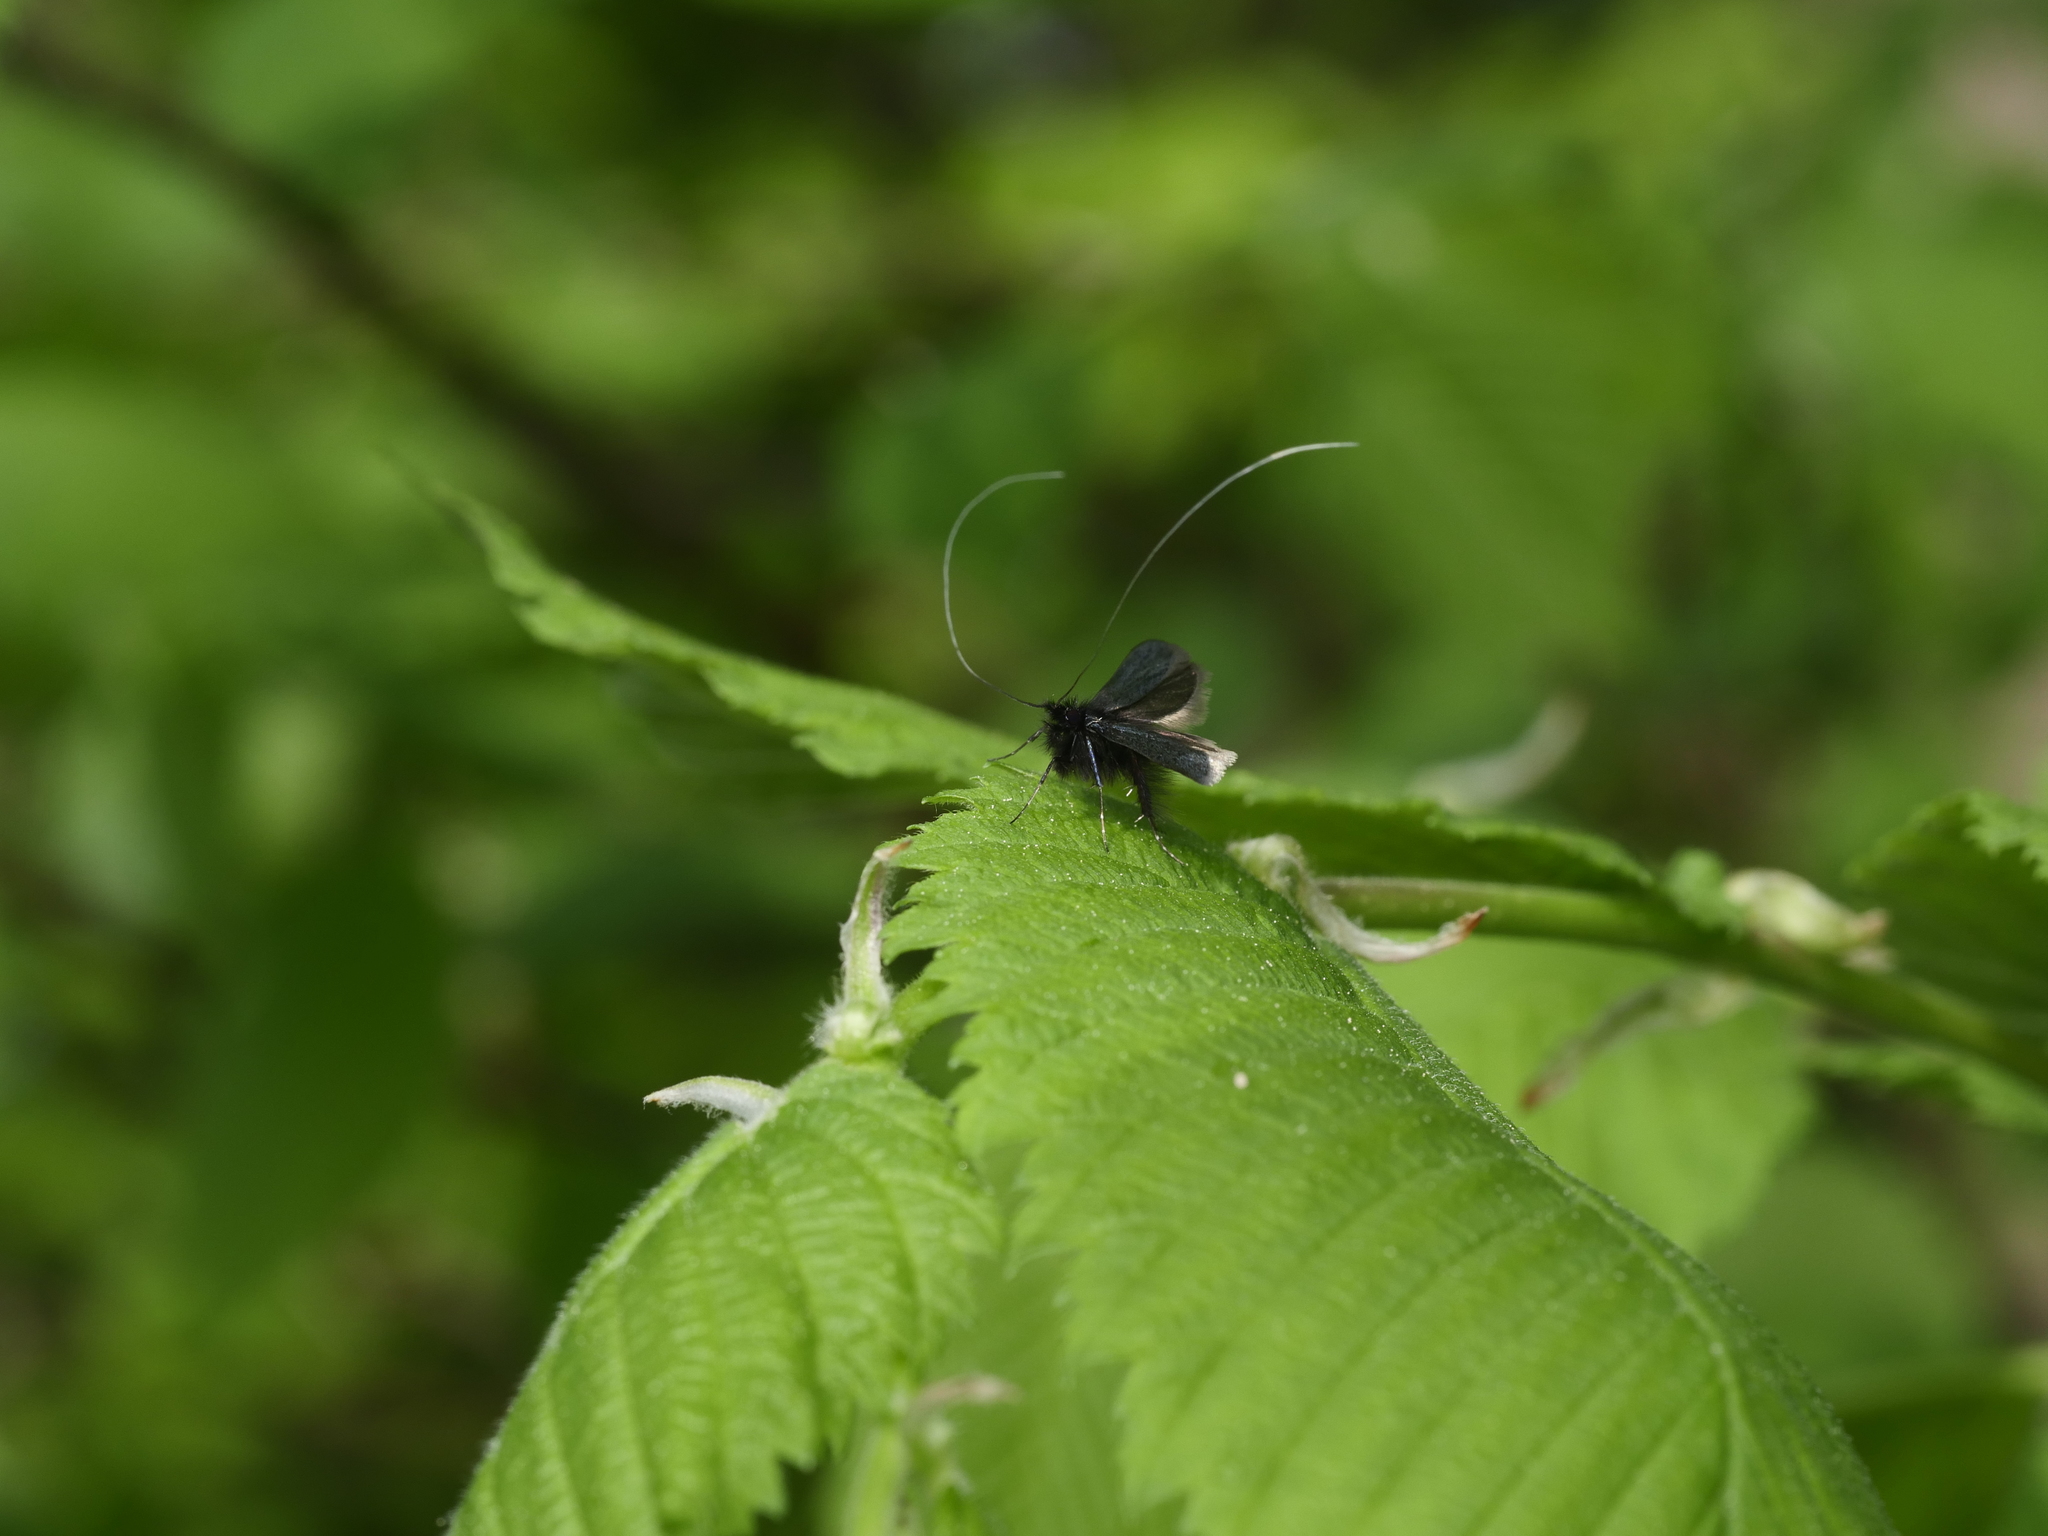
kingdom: Animalia
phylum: Arthropoda
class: Insecta
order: Lepidoptera
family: Adelidae
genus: Adela
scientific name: Adela viridella
